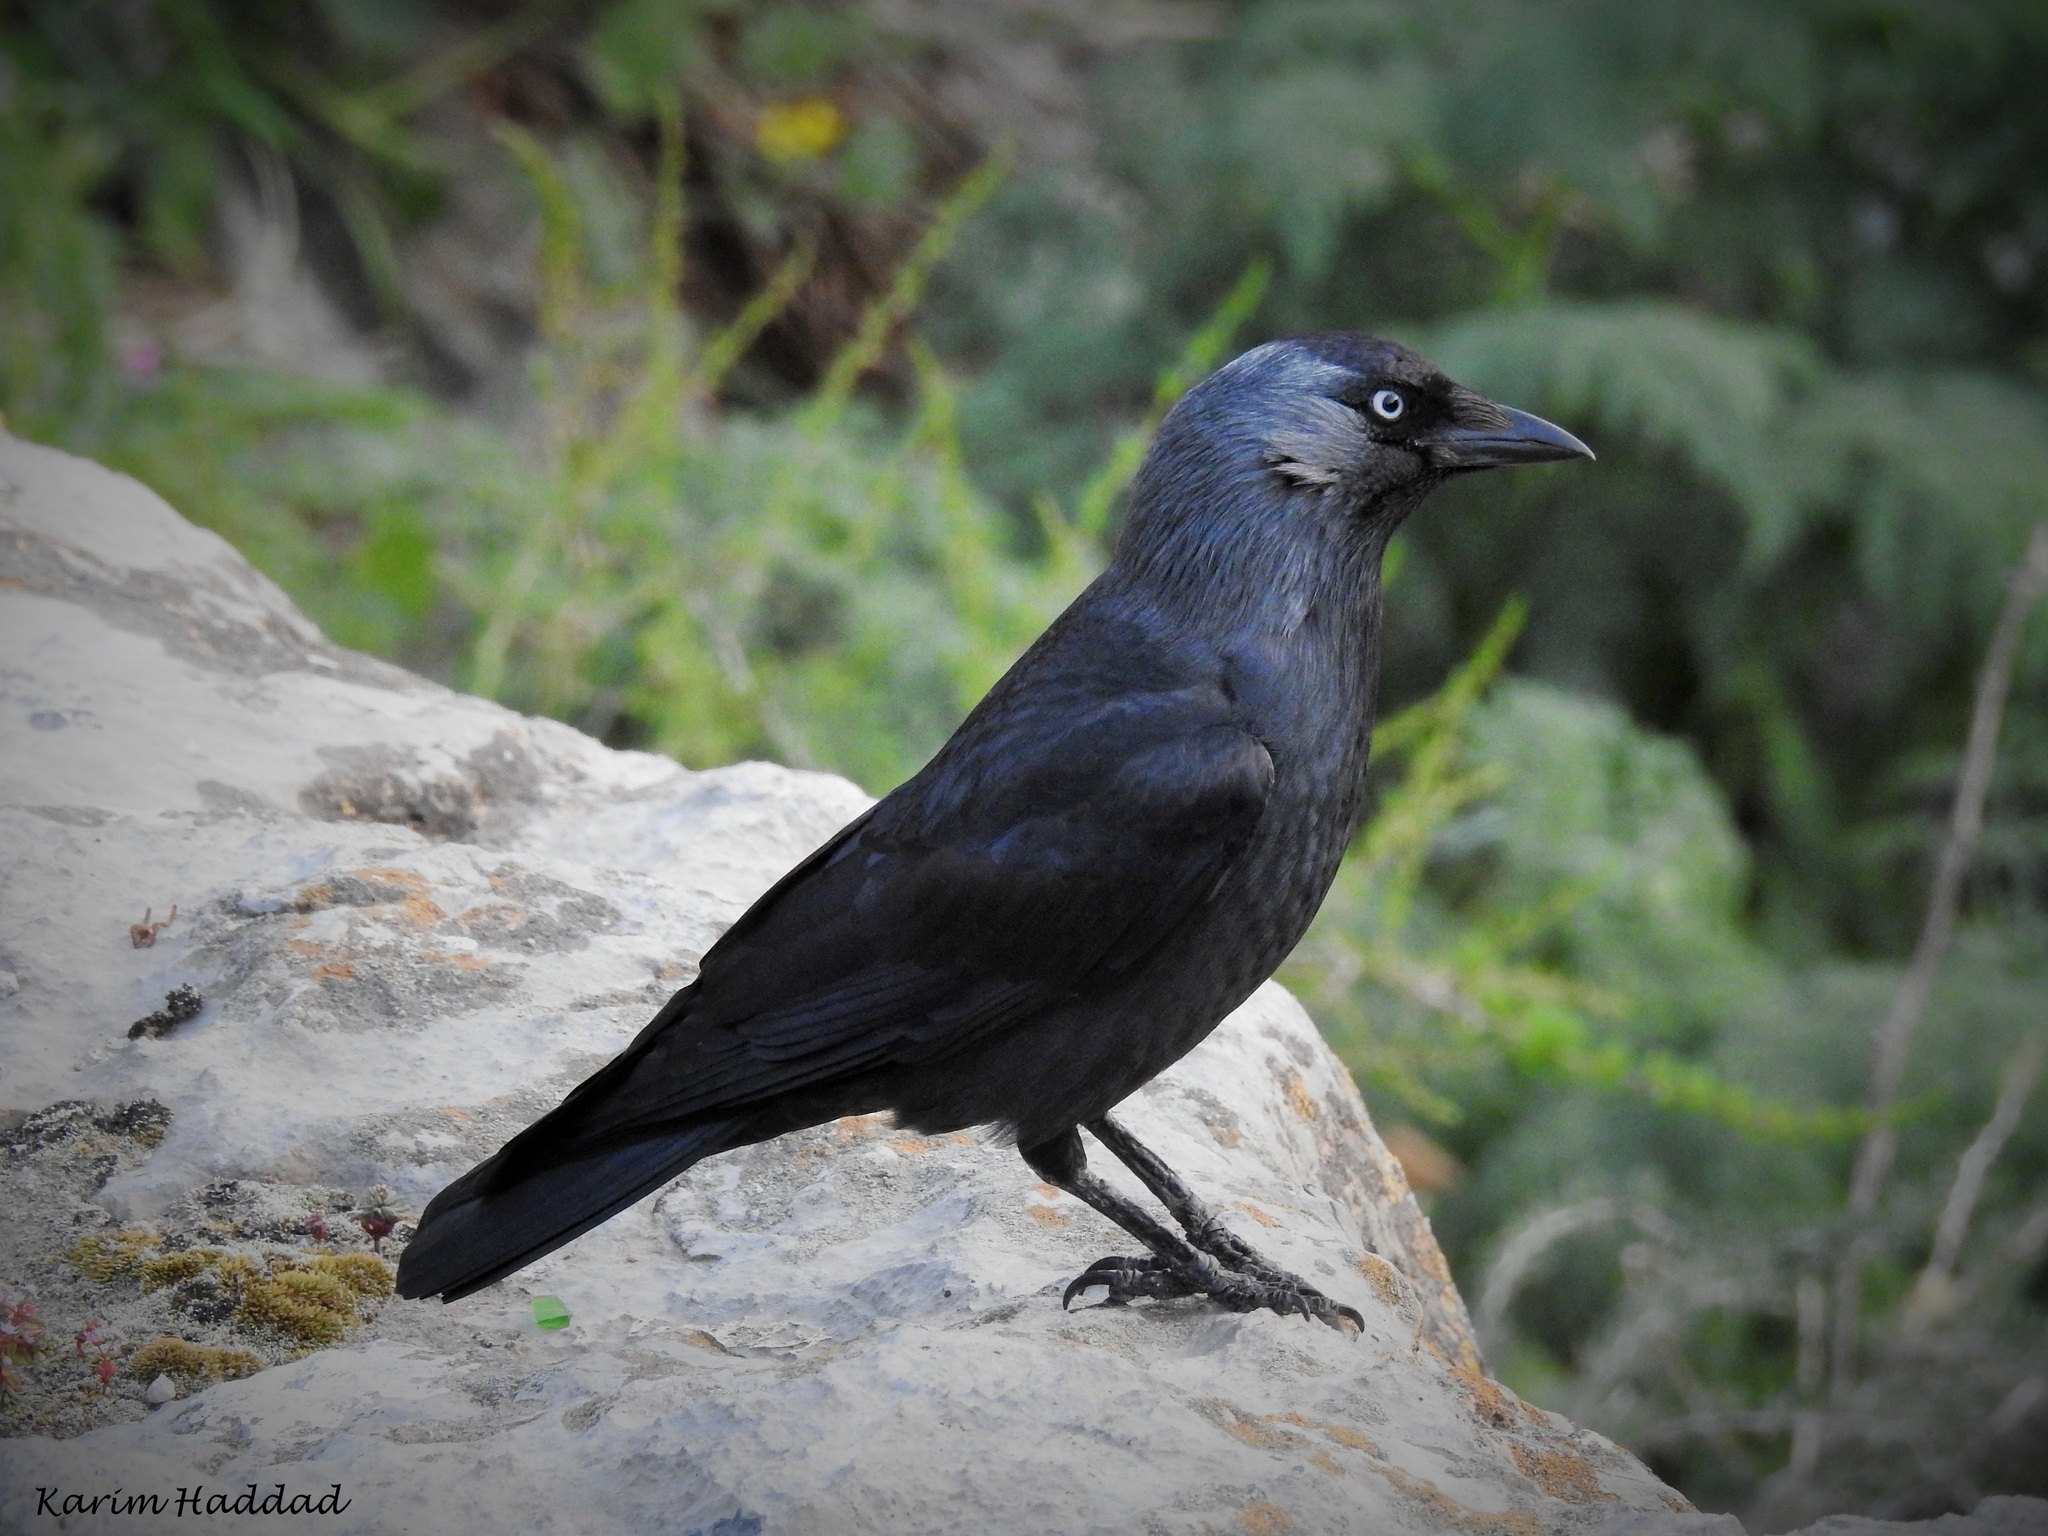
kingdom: Animalia
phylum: Chordata
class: Aves
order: Passeriformes
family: Corvidae
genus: Coloeus
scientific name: Coloeus monedula
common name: Western jackdaw
